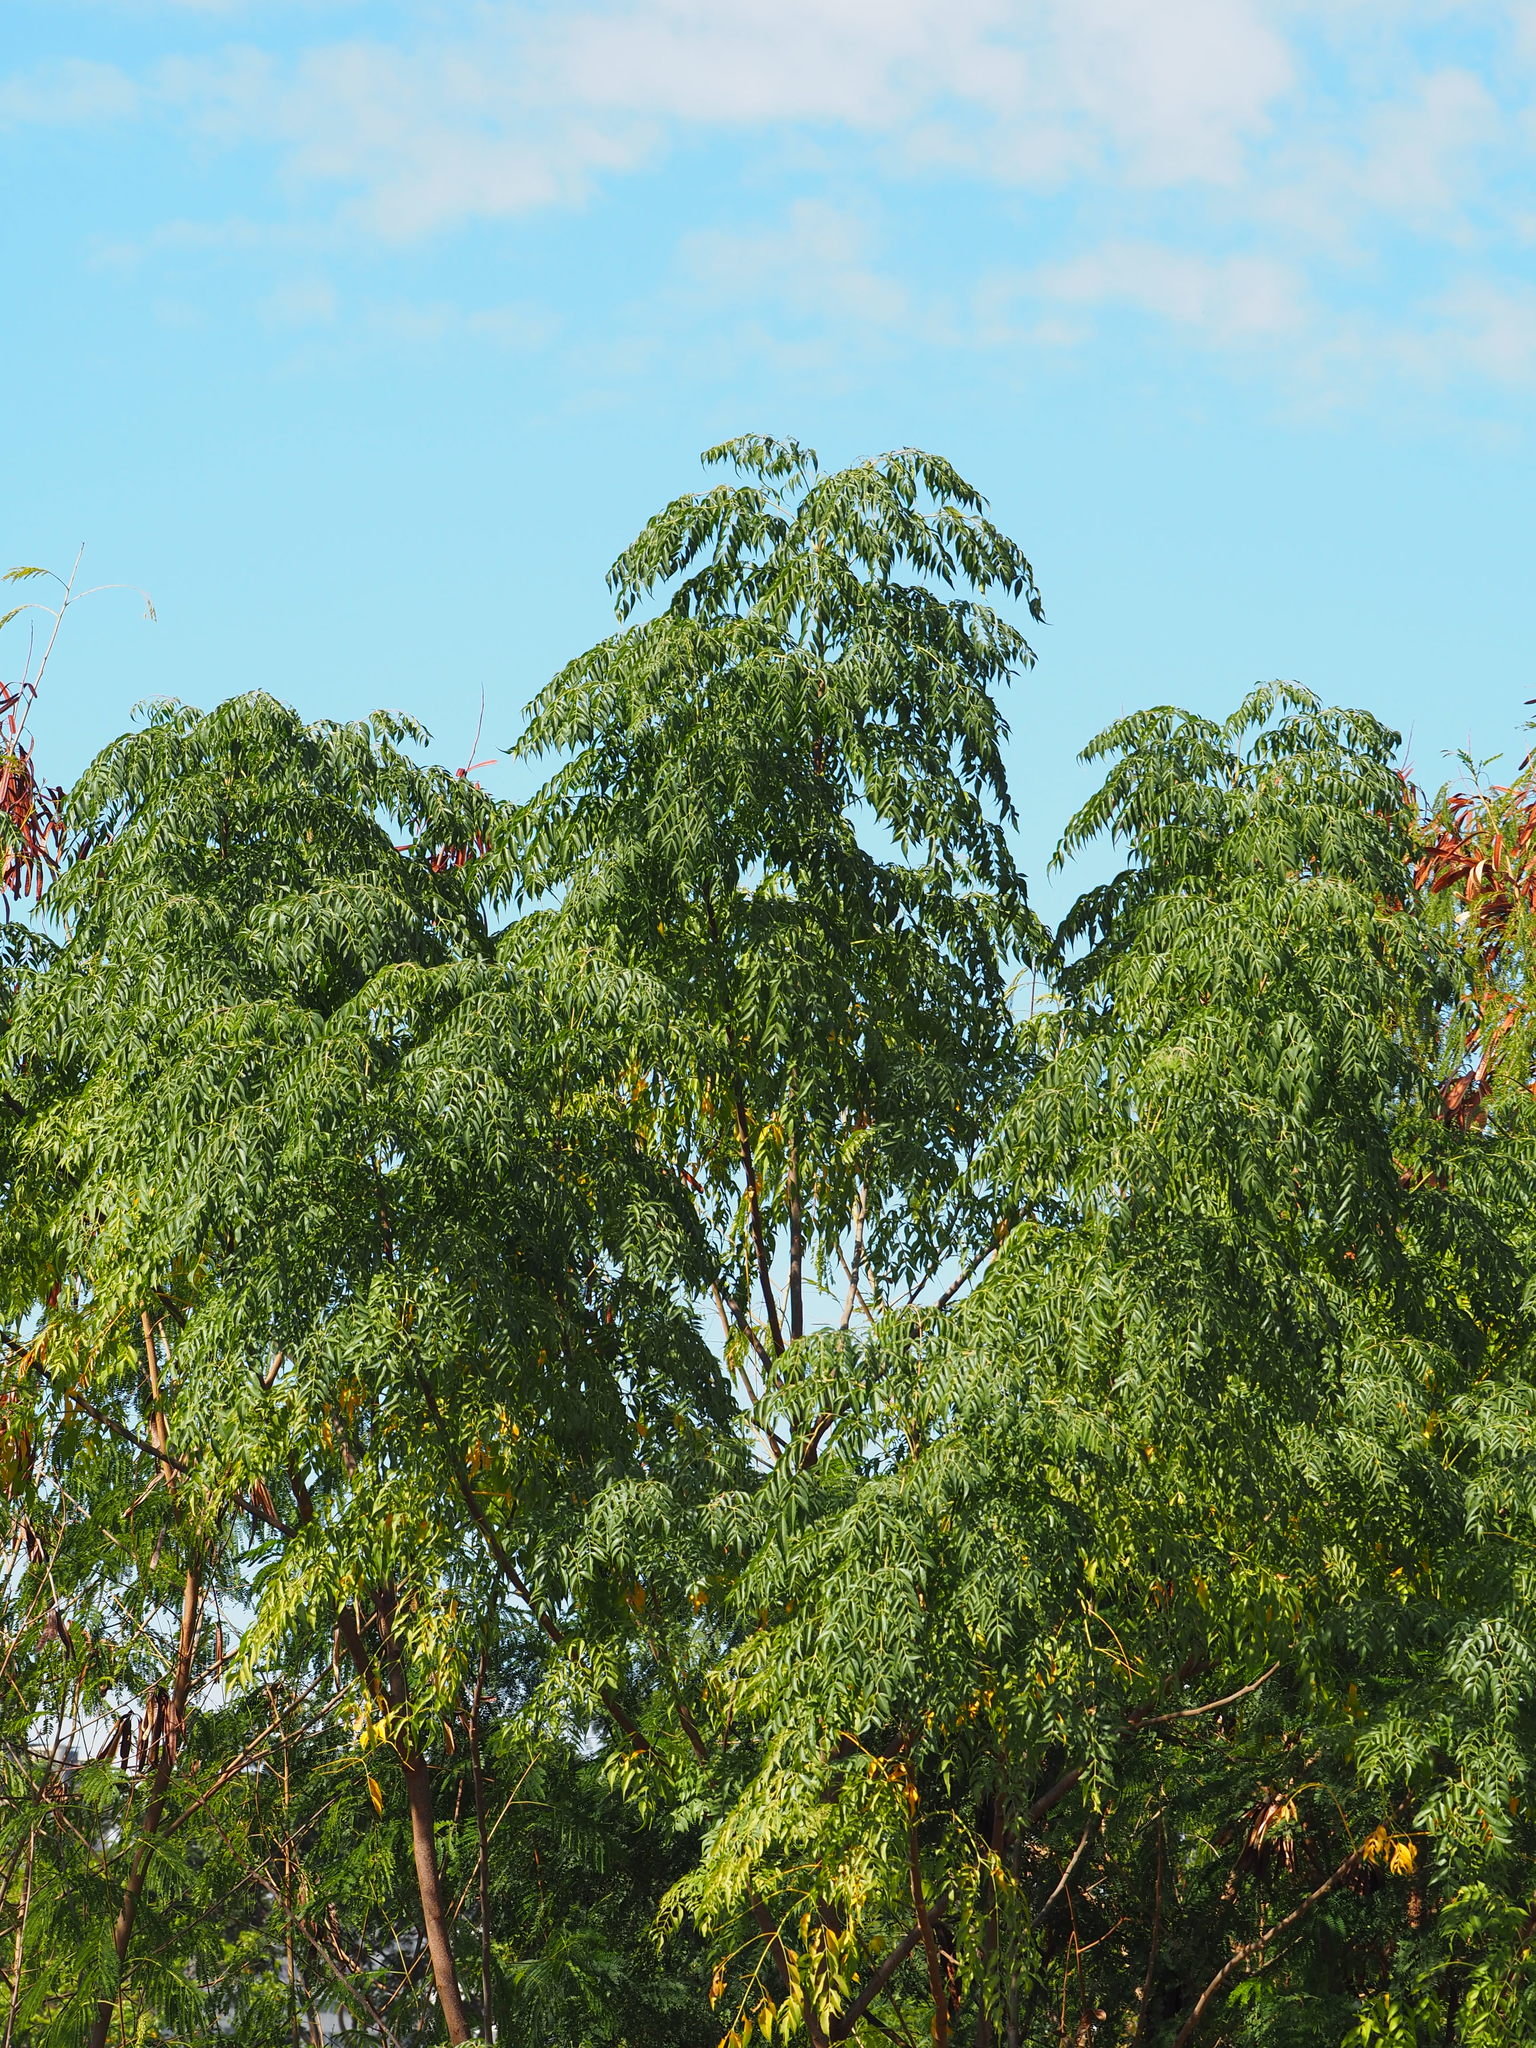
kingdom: Plantae
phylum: Tracheophyta
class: Magnoliopsida
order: Sapindales
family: Meliaceae
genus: Melia
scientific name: Melia azedarach
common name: Chinaberrytree
